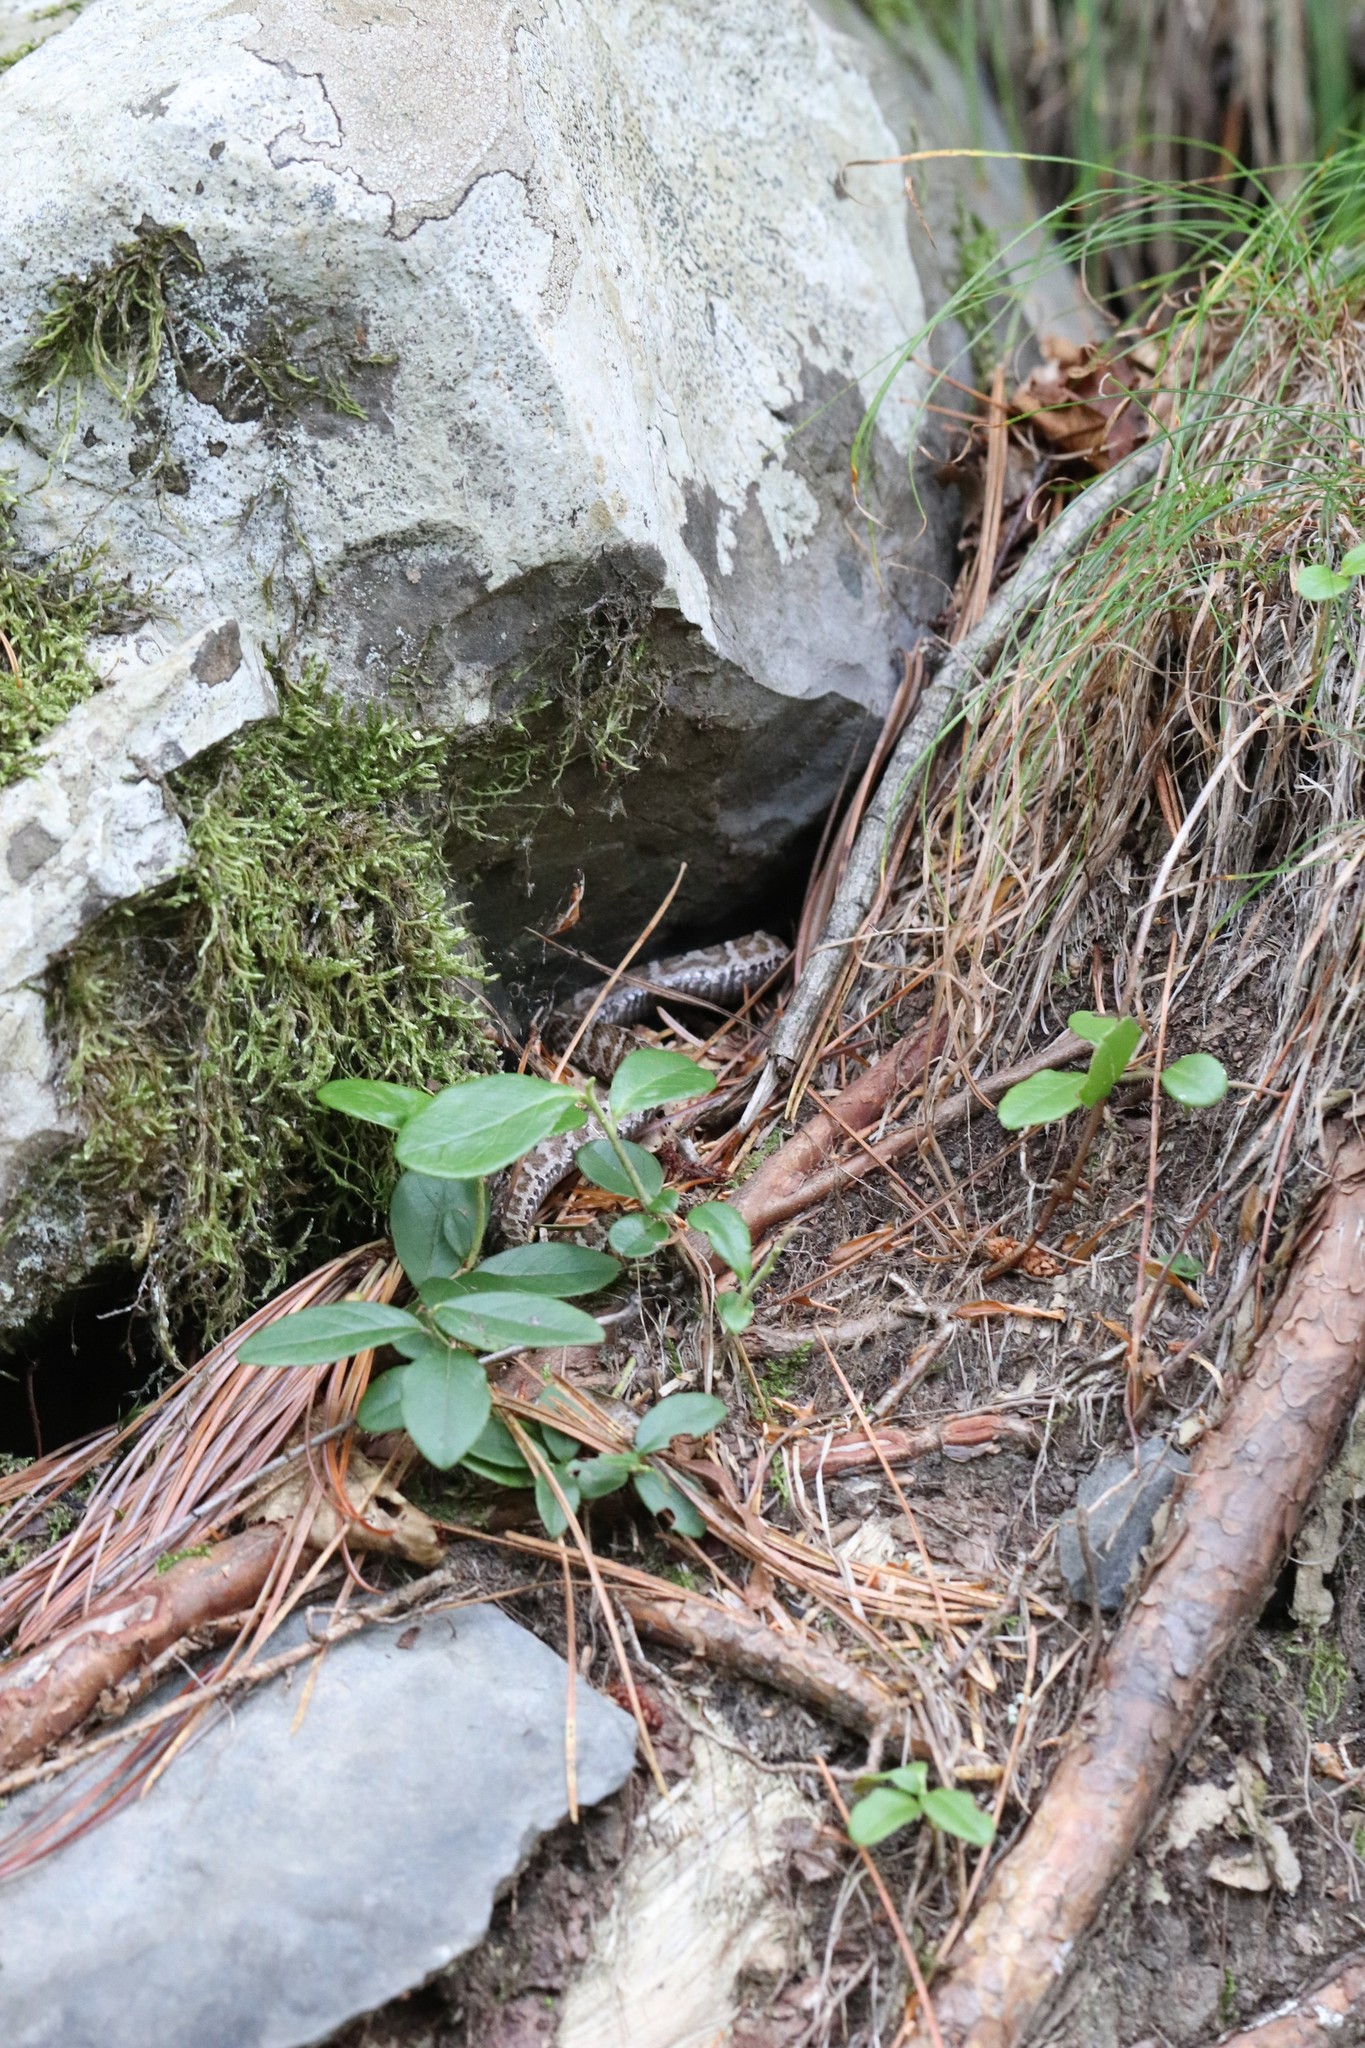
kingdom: Animalia
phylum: Chordata
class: Squamata
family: Viperidae
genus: Gloydius
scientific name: Gloydius ussuriensis
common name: Ussuri mamushi
